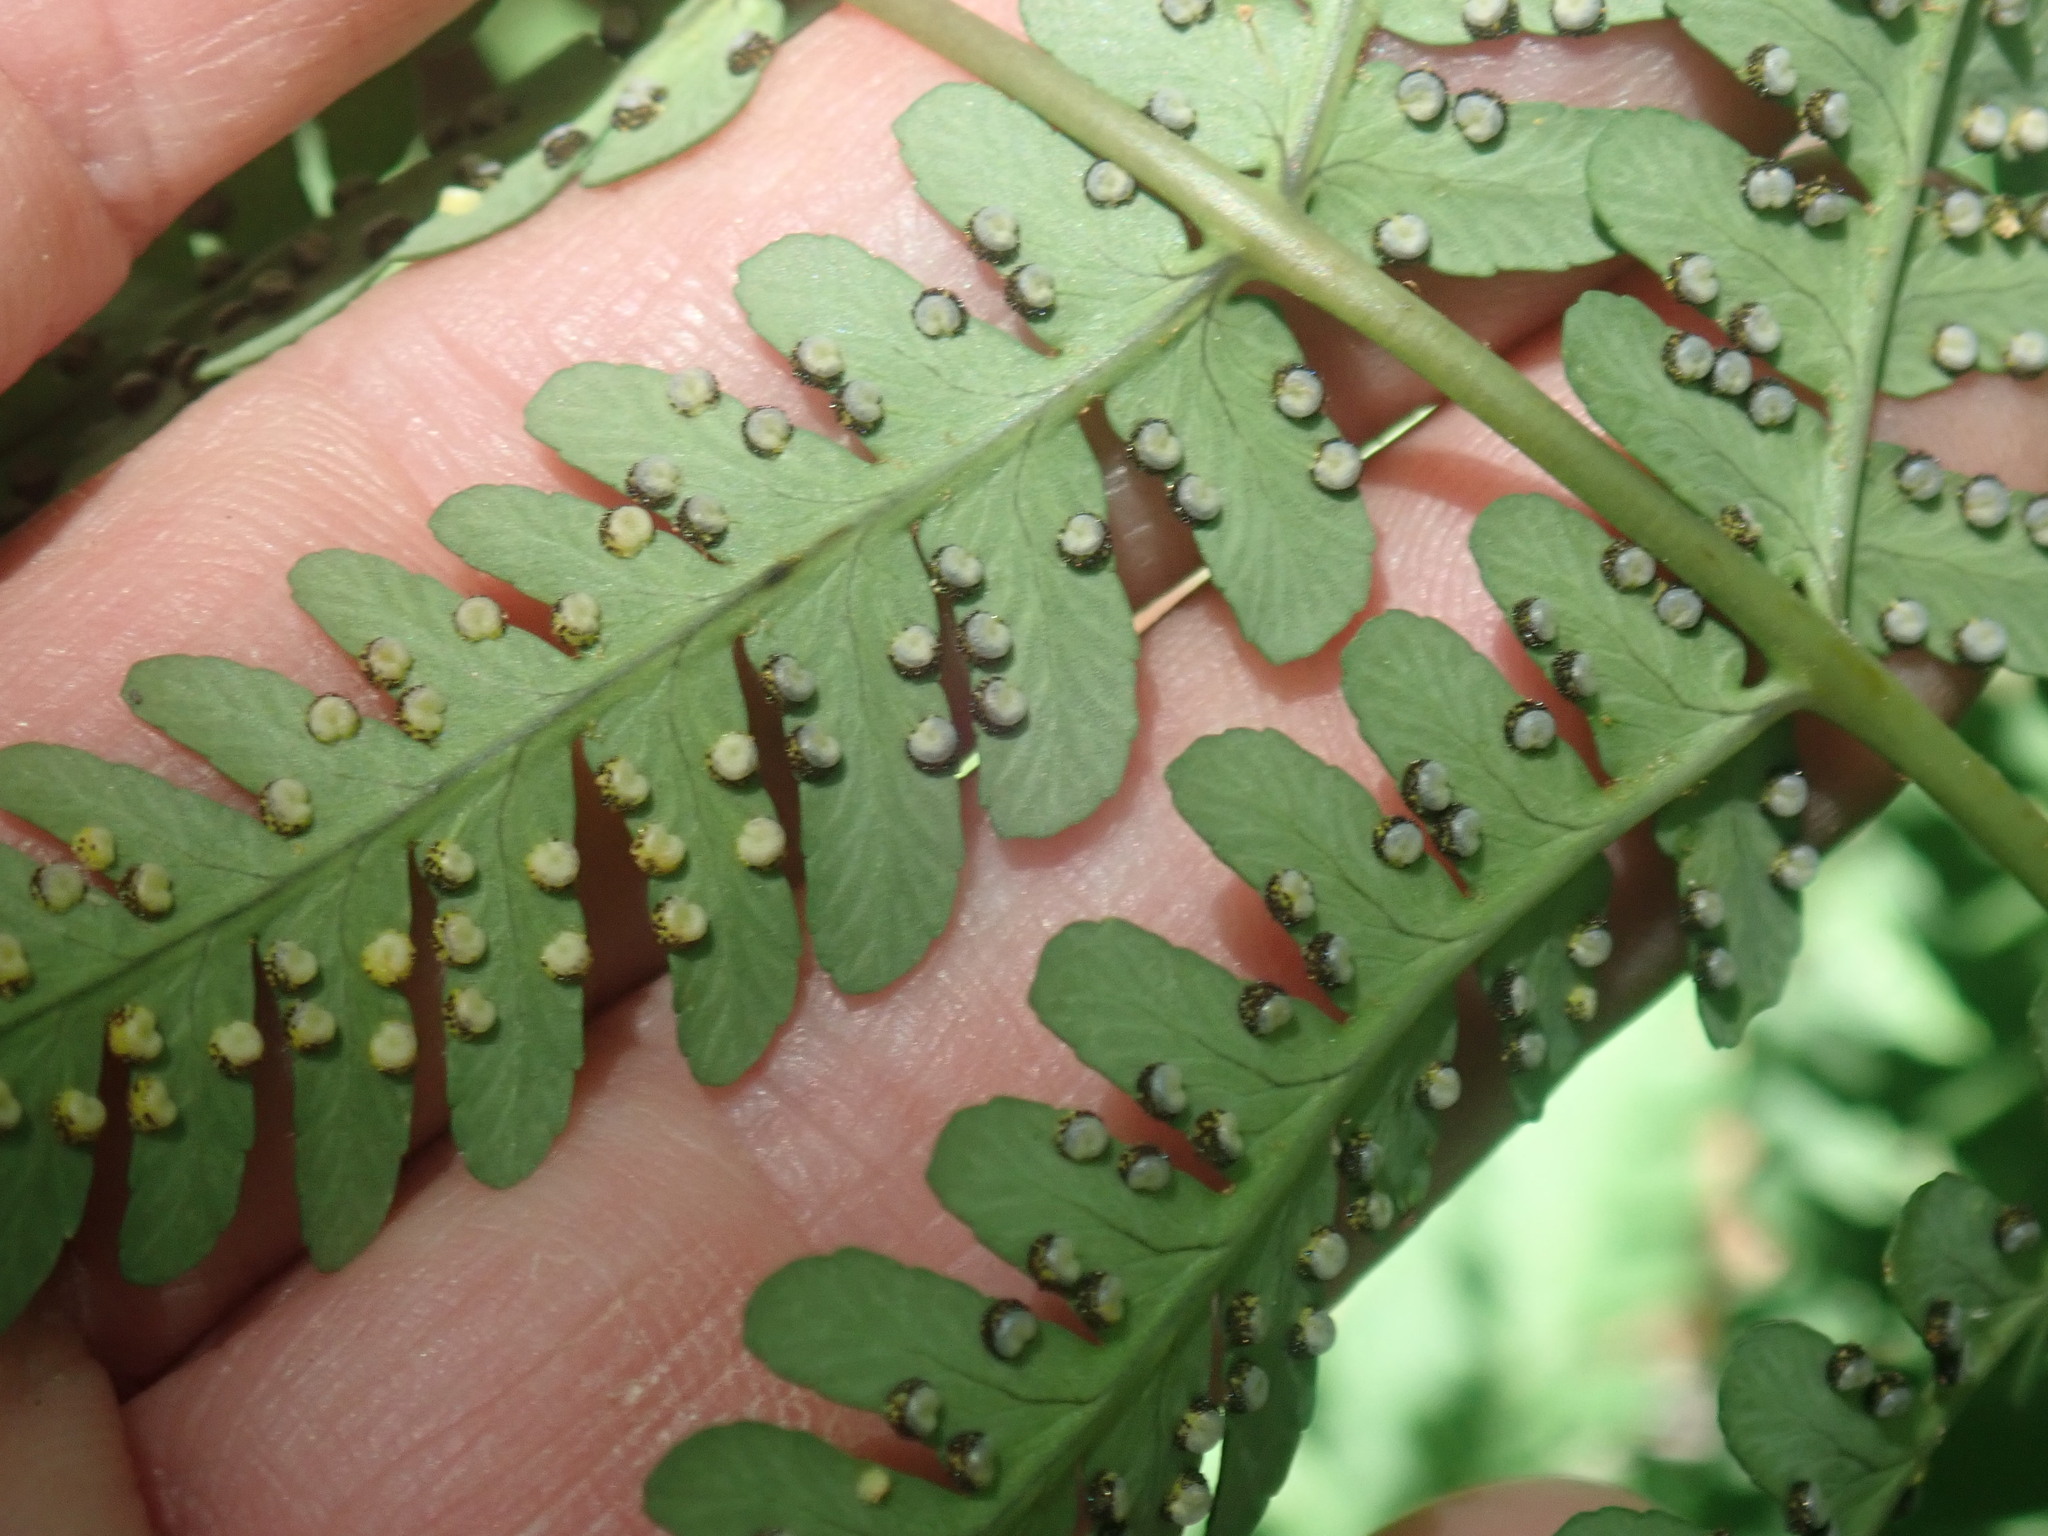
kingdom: Plantae
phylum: Tracheophyta
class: Polypodiopsida
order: Polypodiales
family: Dryopteridaceae
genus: Dryopteris
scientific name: Dryopteris marginalis
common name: Marginal wood fern
